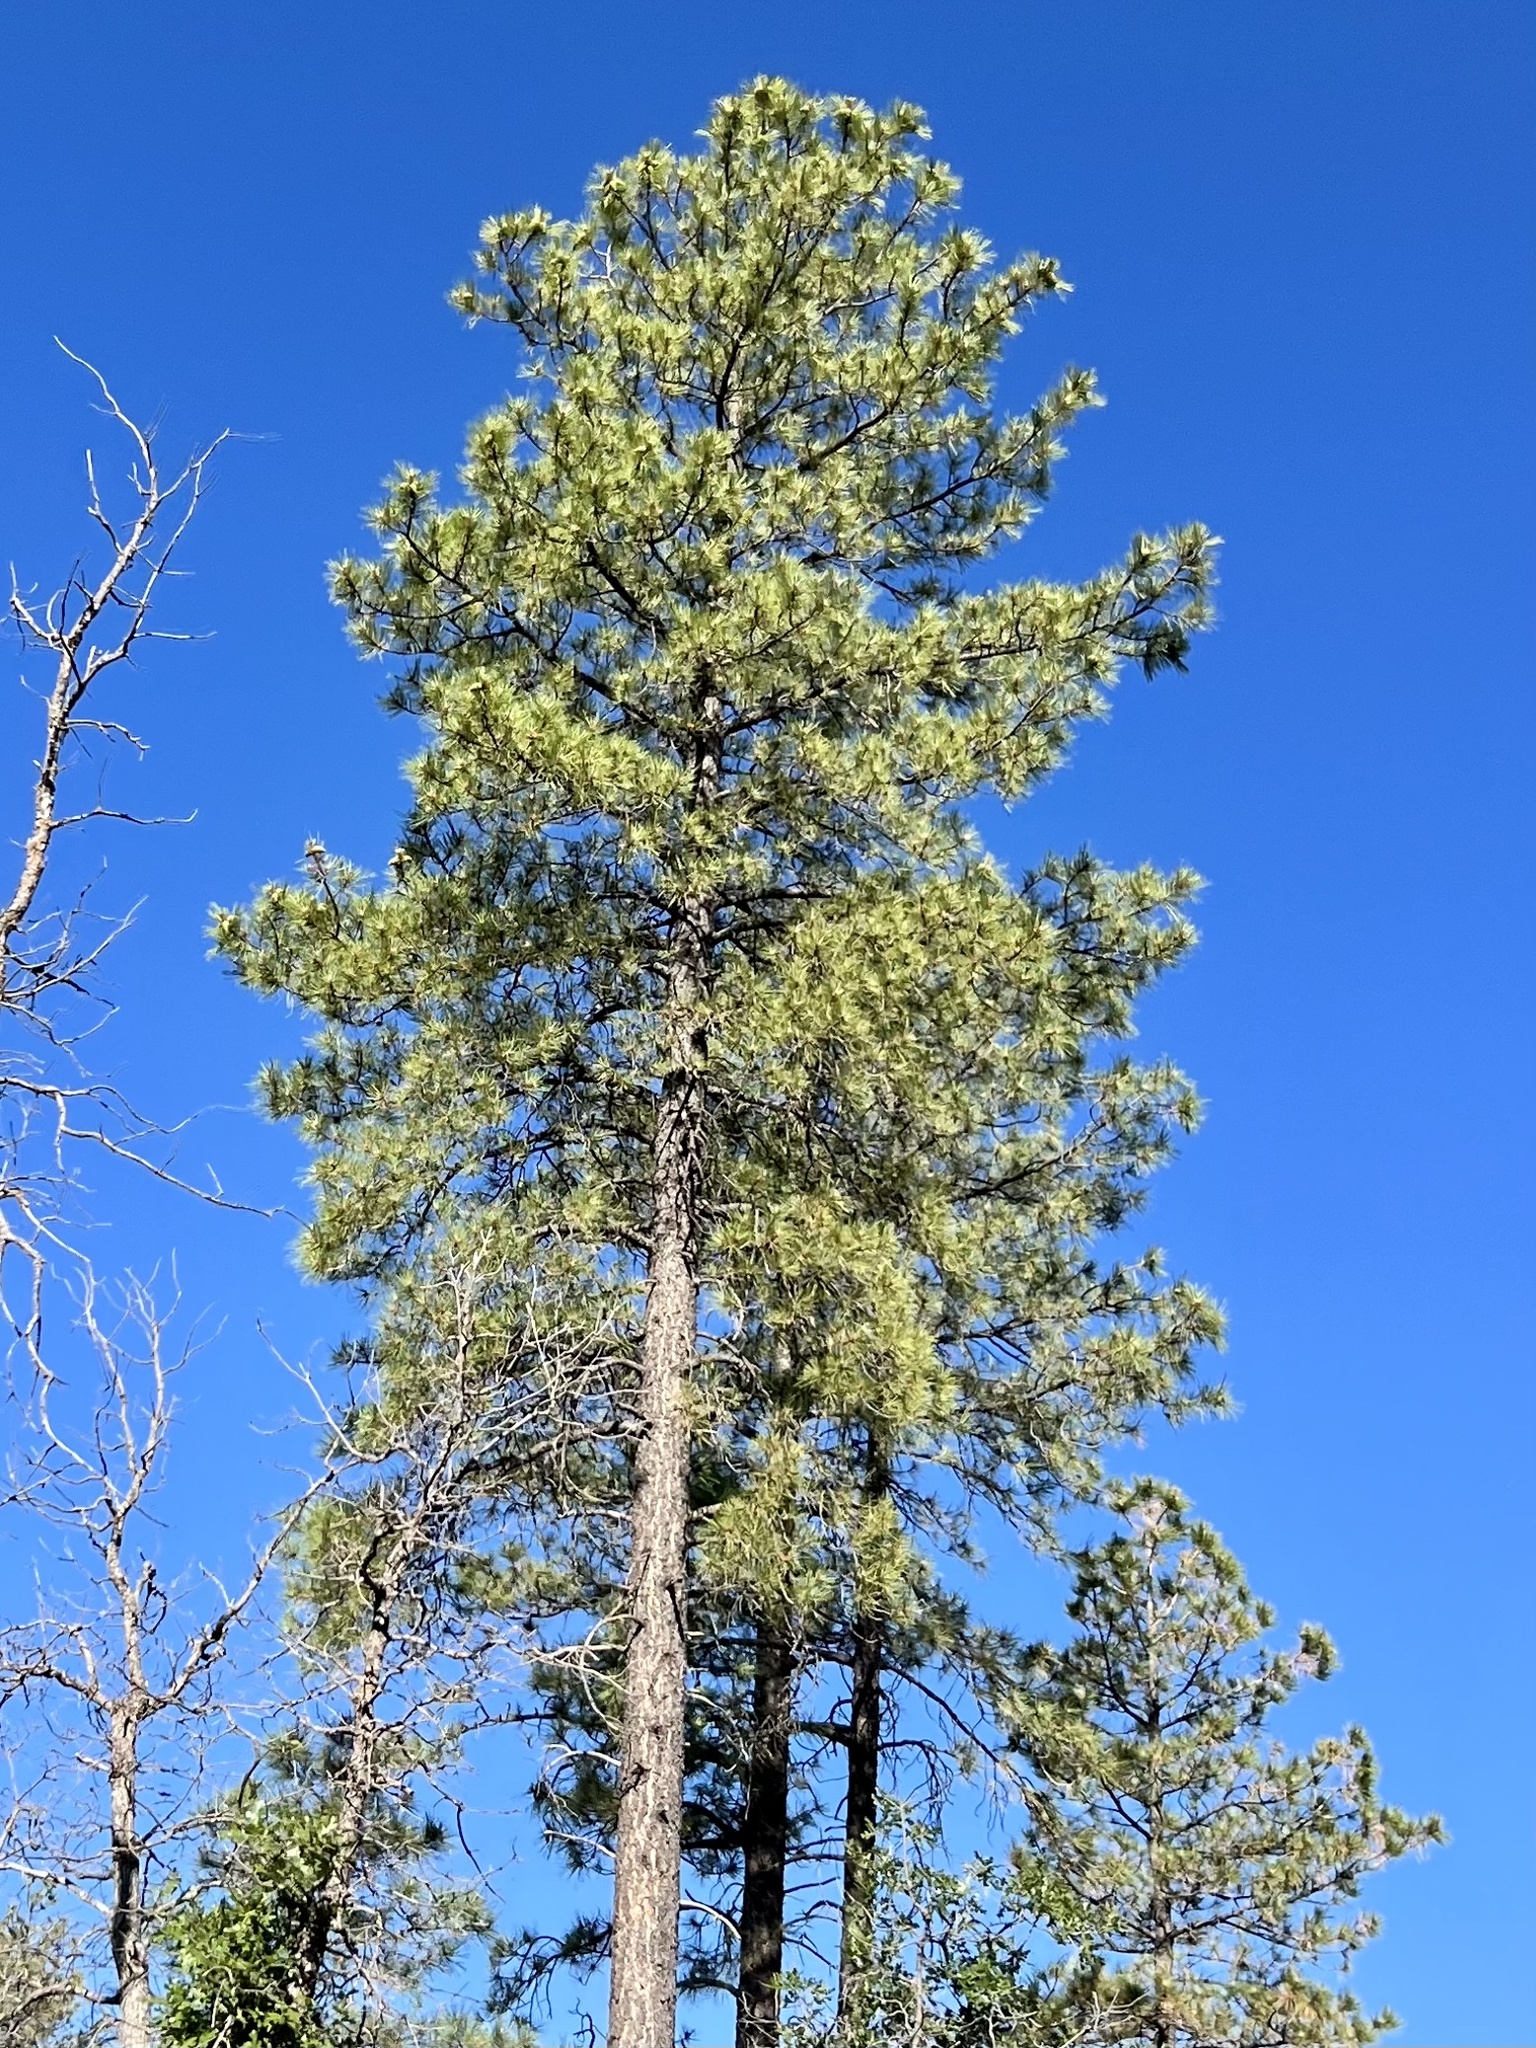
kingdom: Plantae
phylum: Tracheophyta
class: Pinopsida
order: Pinales
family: Pinaceae
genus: Pinus
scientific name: Pinus ponderosa
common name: Western yellow-pine
